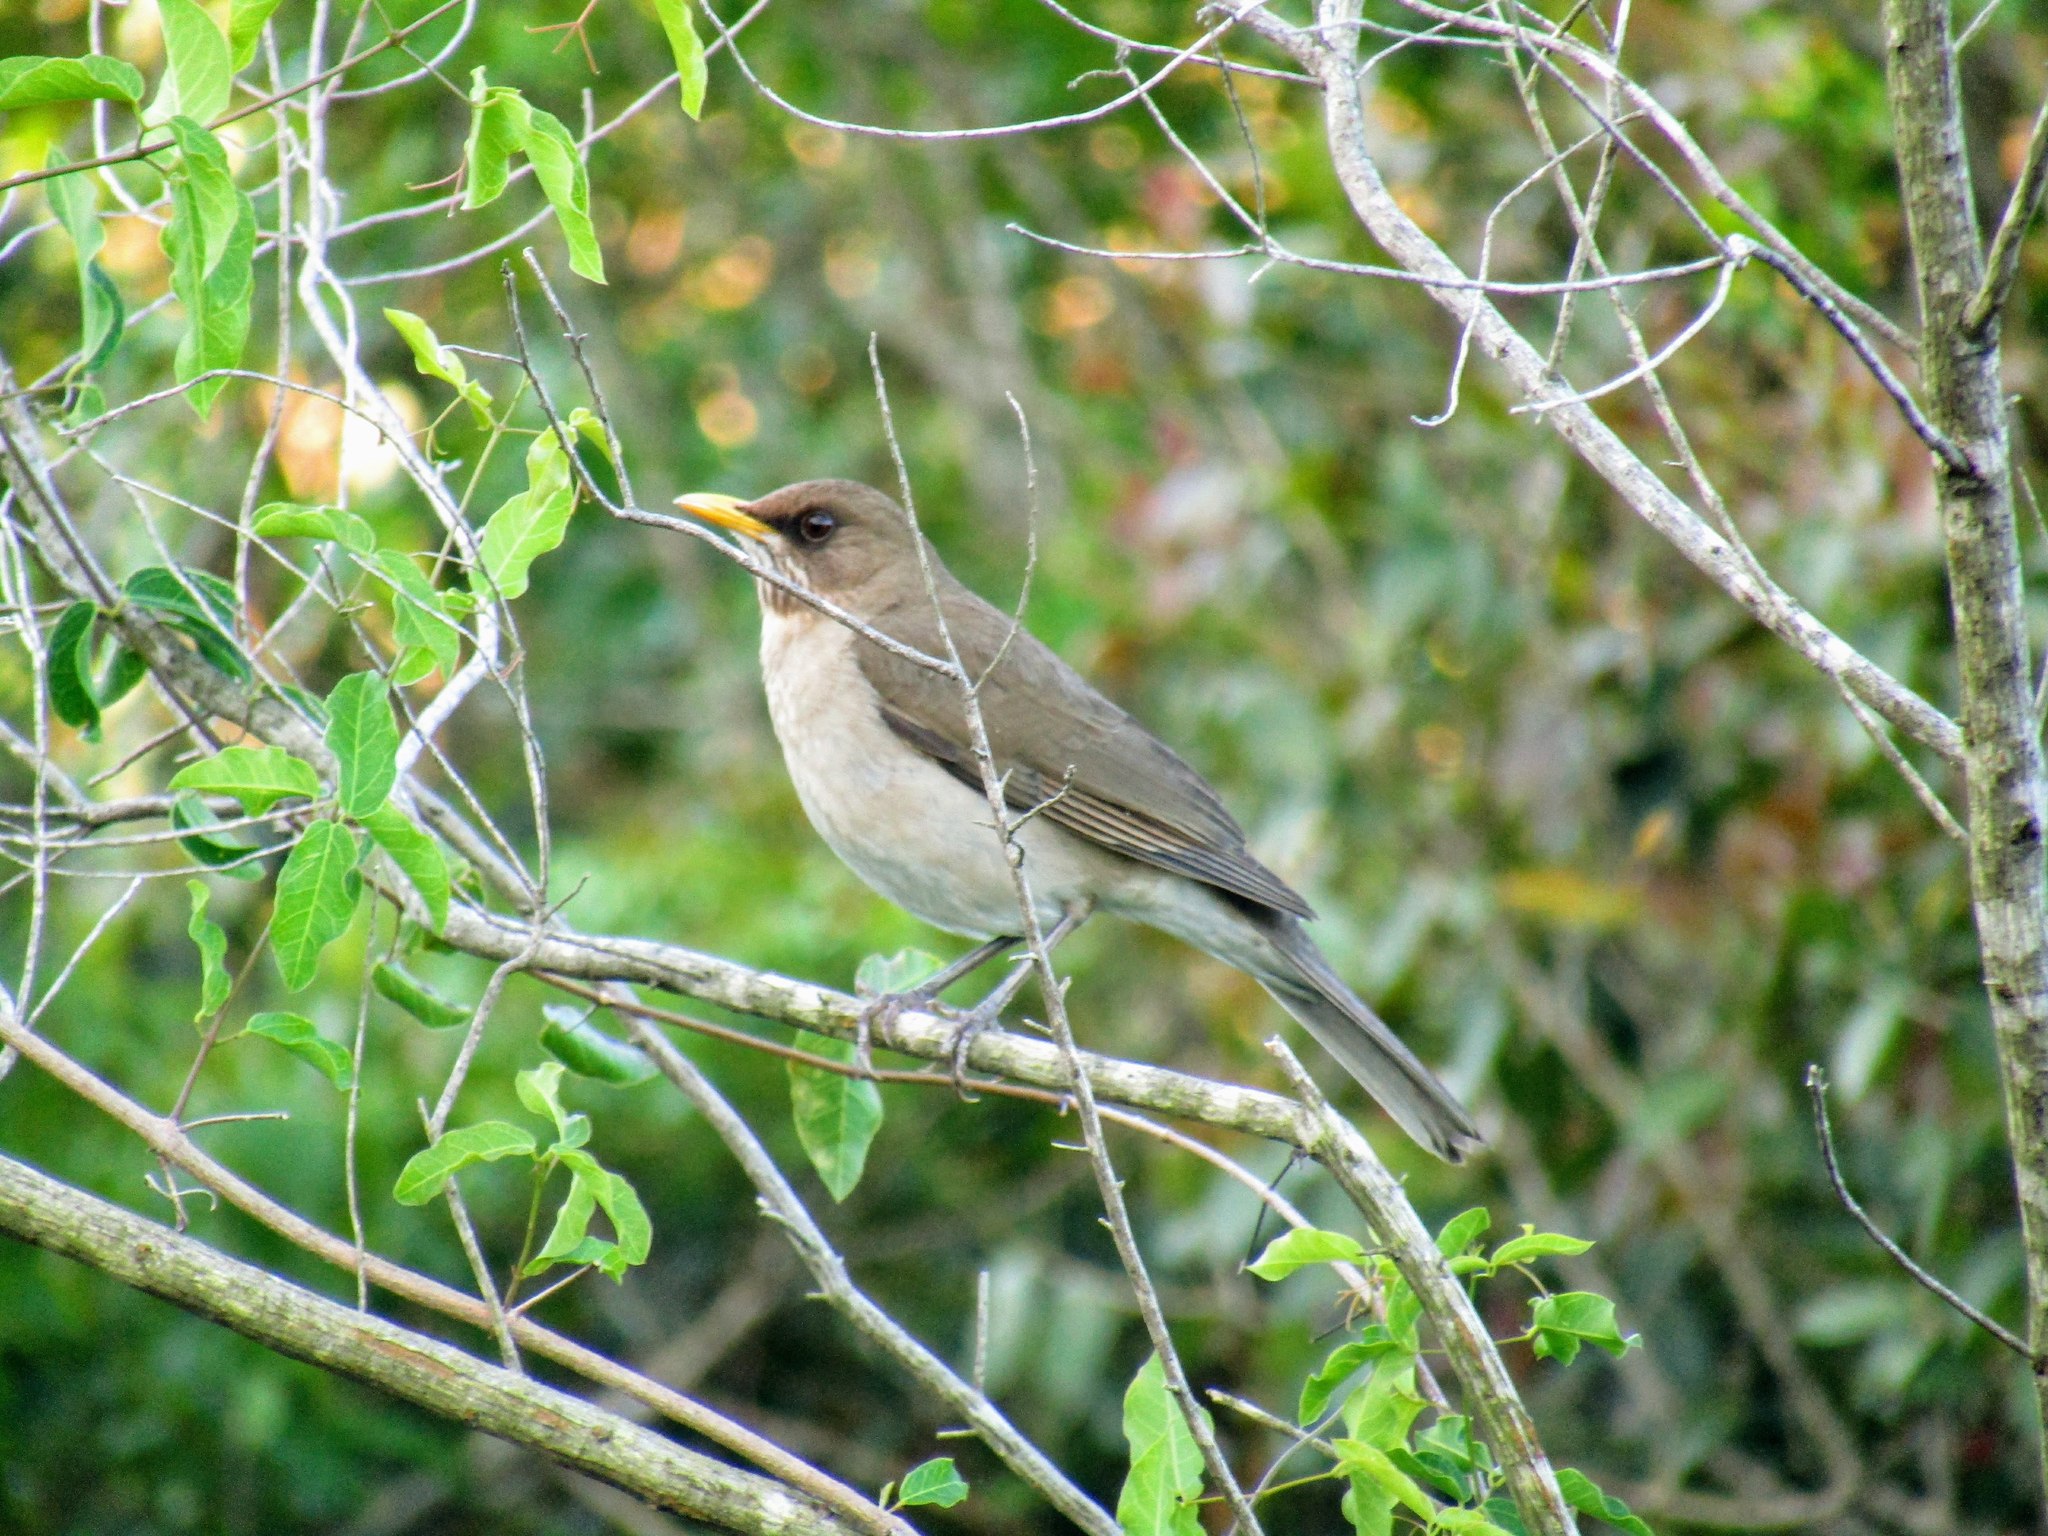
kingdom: Animalia
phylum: Chordata
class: Aves
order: Passeriformes
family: Turdidae
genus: Turdus
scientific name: Turdus amaurochalinus
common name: Creamy-bellied thrush
